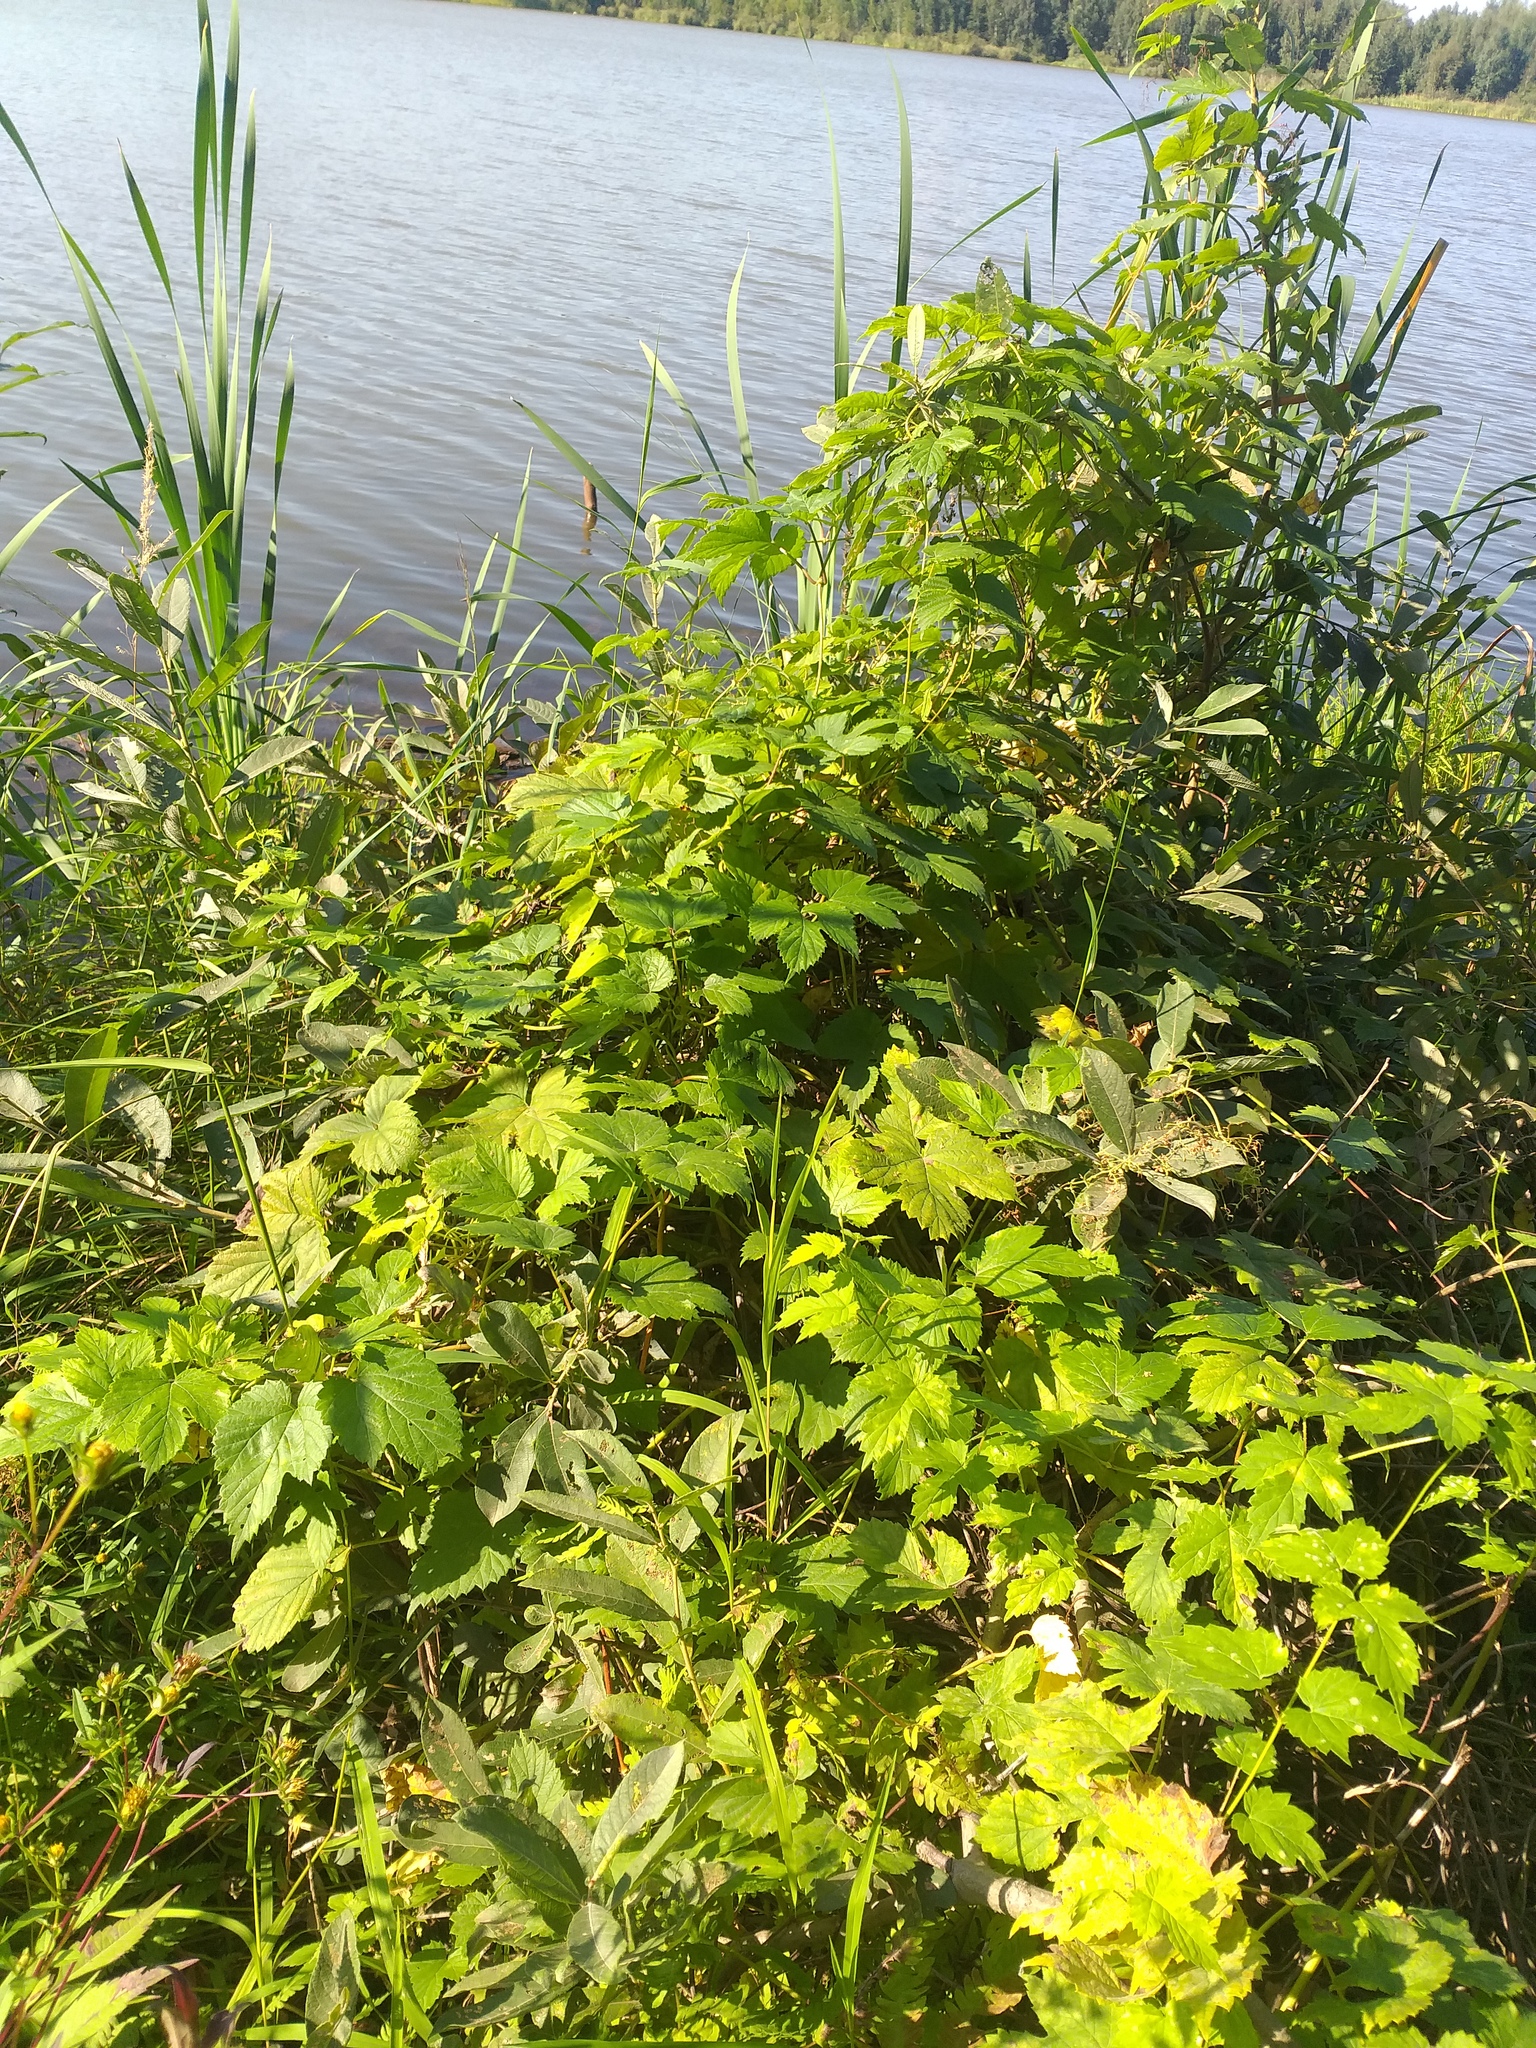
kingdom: Plantae
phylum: Tracheophyta
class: Magnoliopsida
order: Rosales
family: Cannabaceae
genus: Humulus
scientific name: Humulus lupulus
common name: Hop
